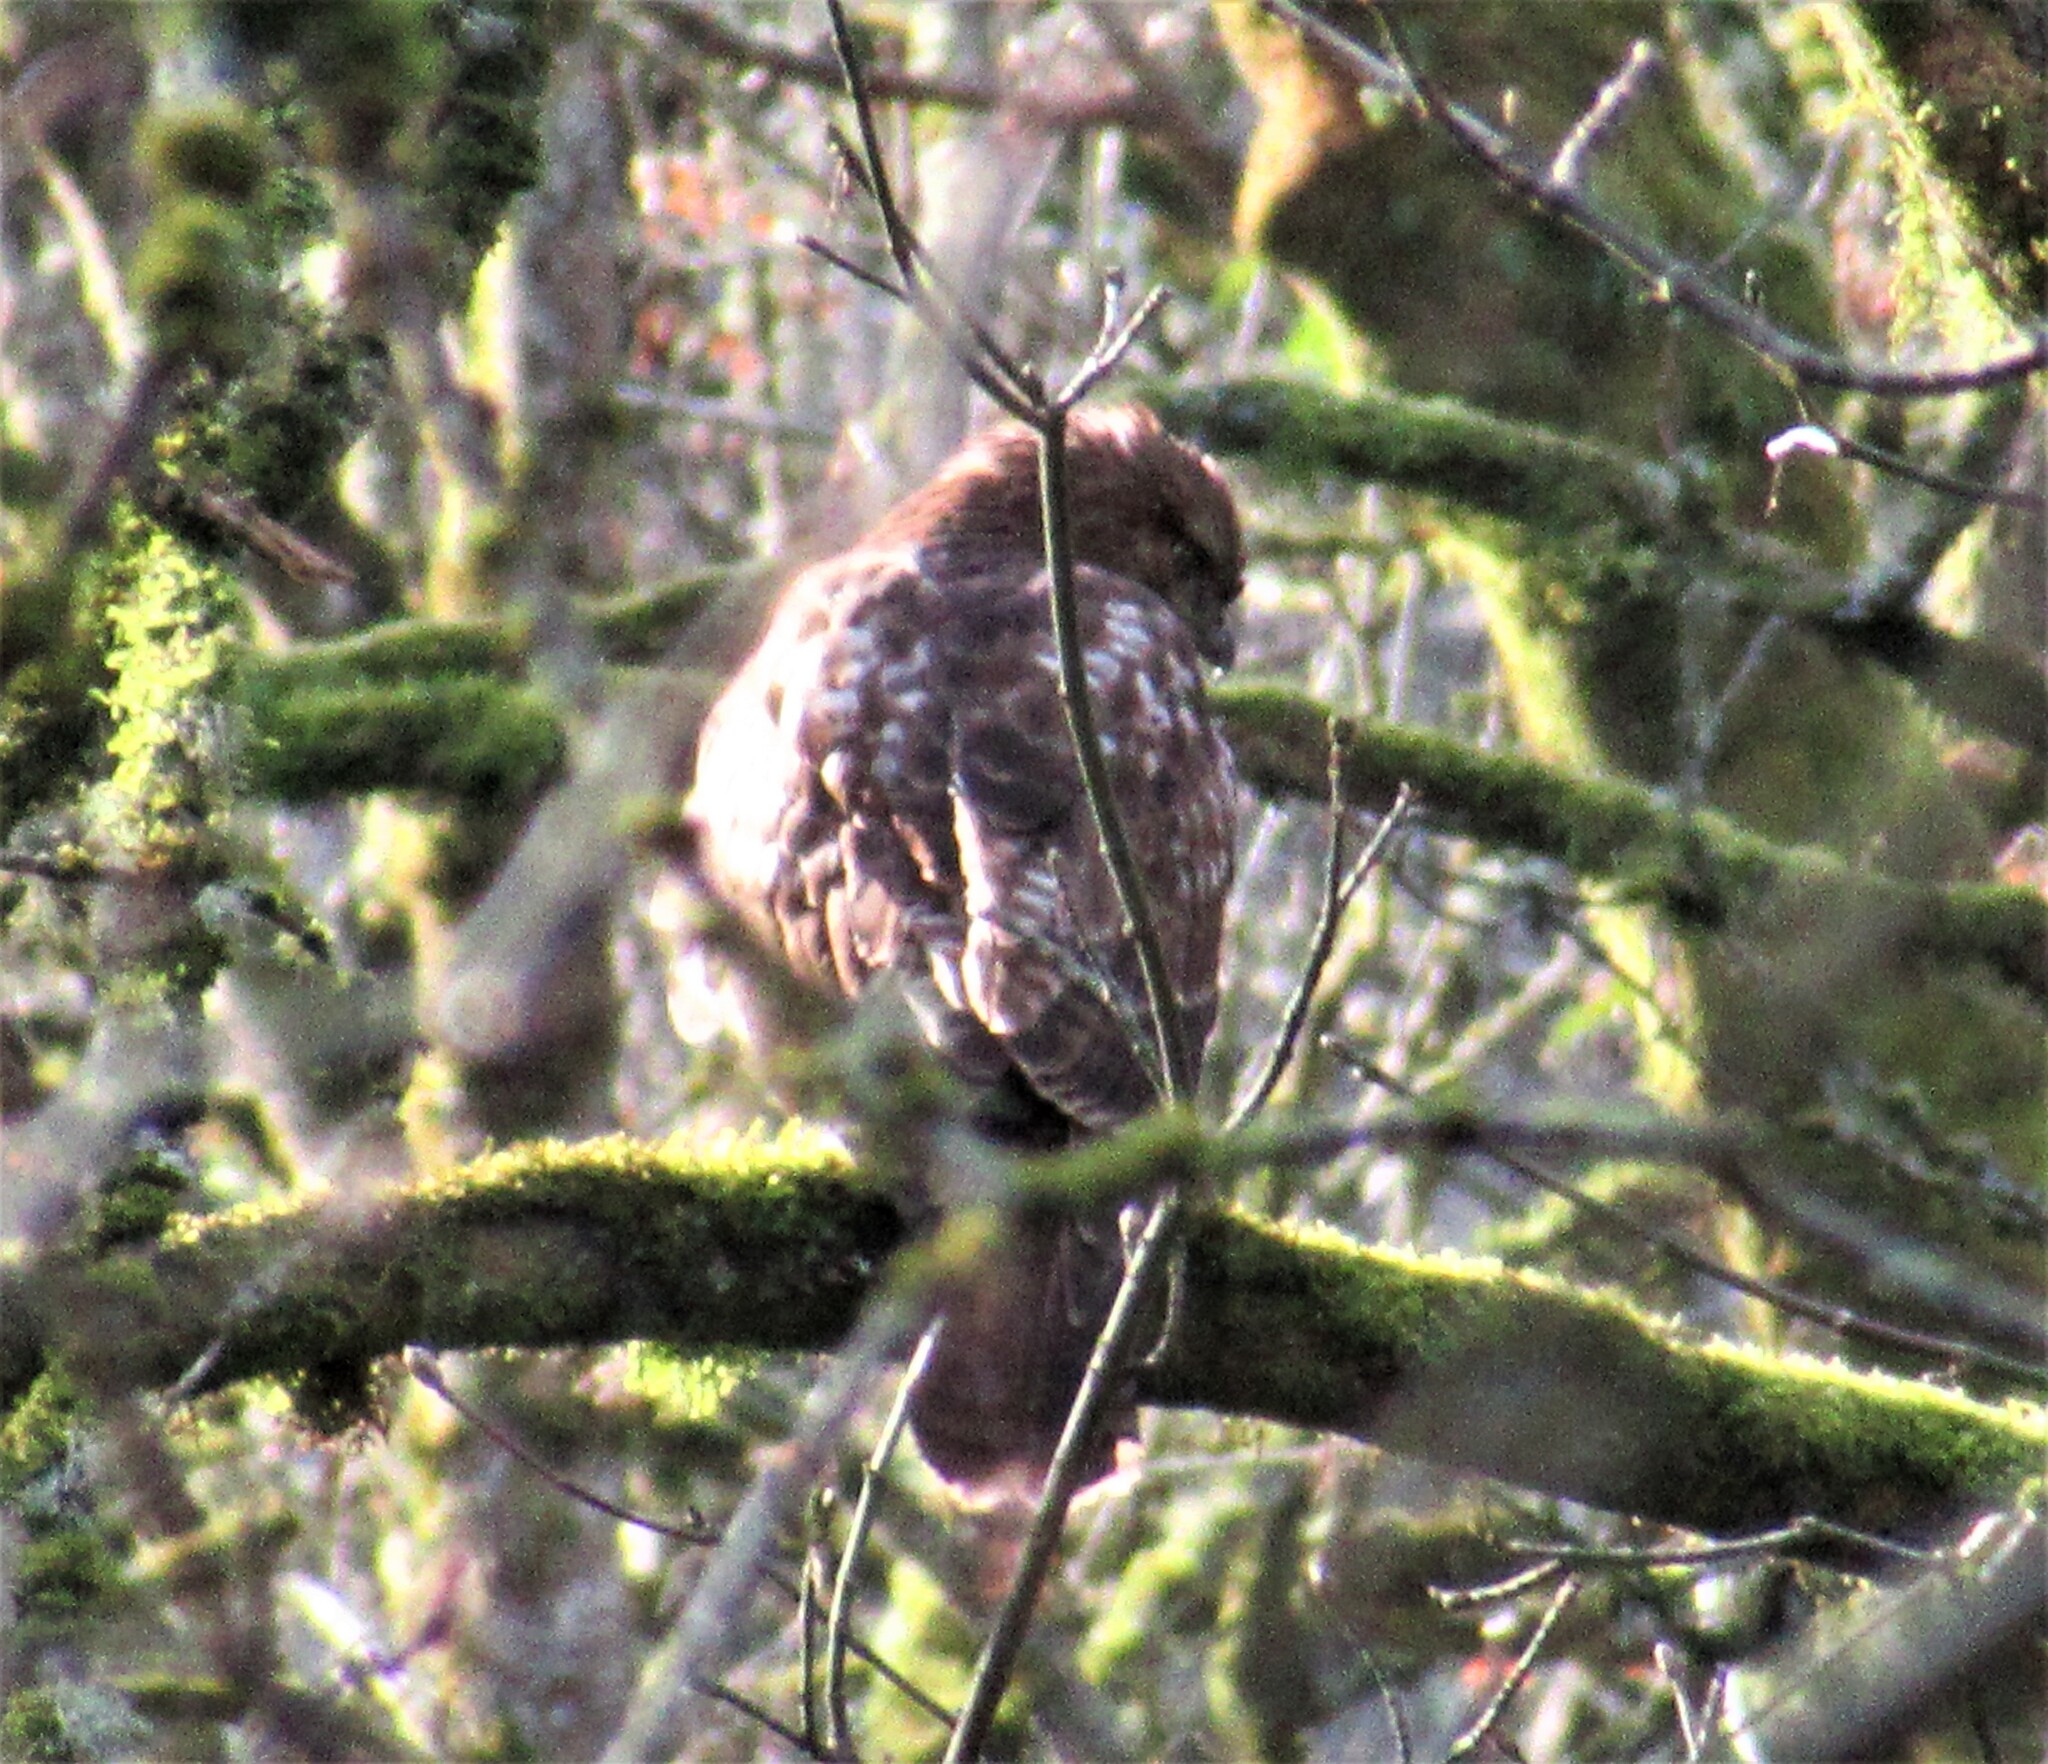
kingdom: Animalia
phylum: Chordata
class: Aves
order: Accipitriformes
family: Accipitridae
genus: Buteo
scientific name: Buteo jamaicensis
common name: Red-tailed hawk
